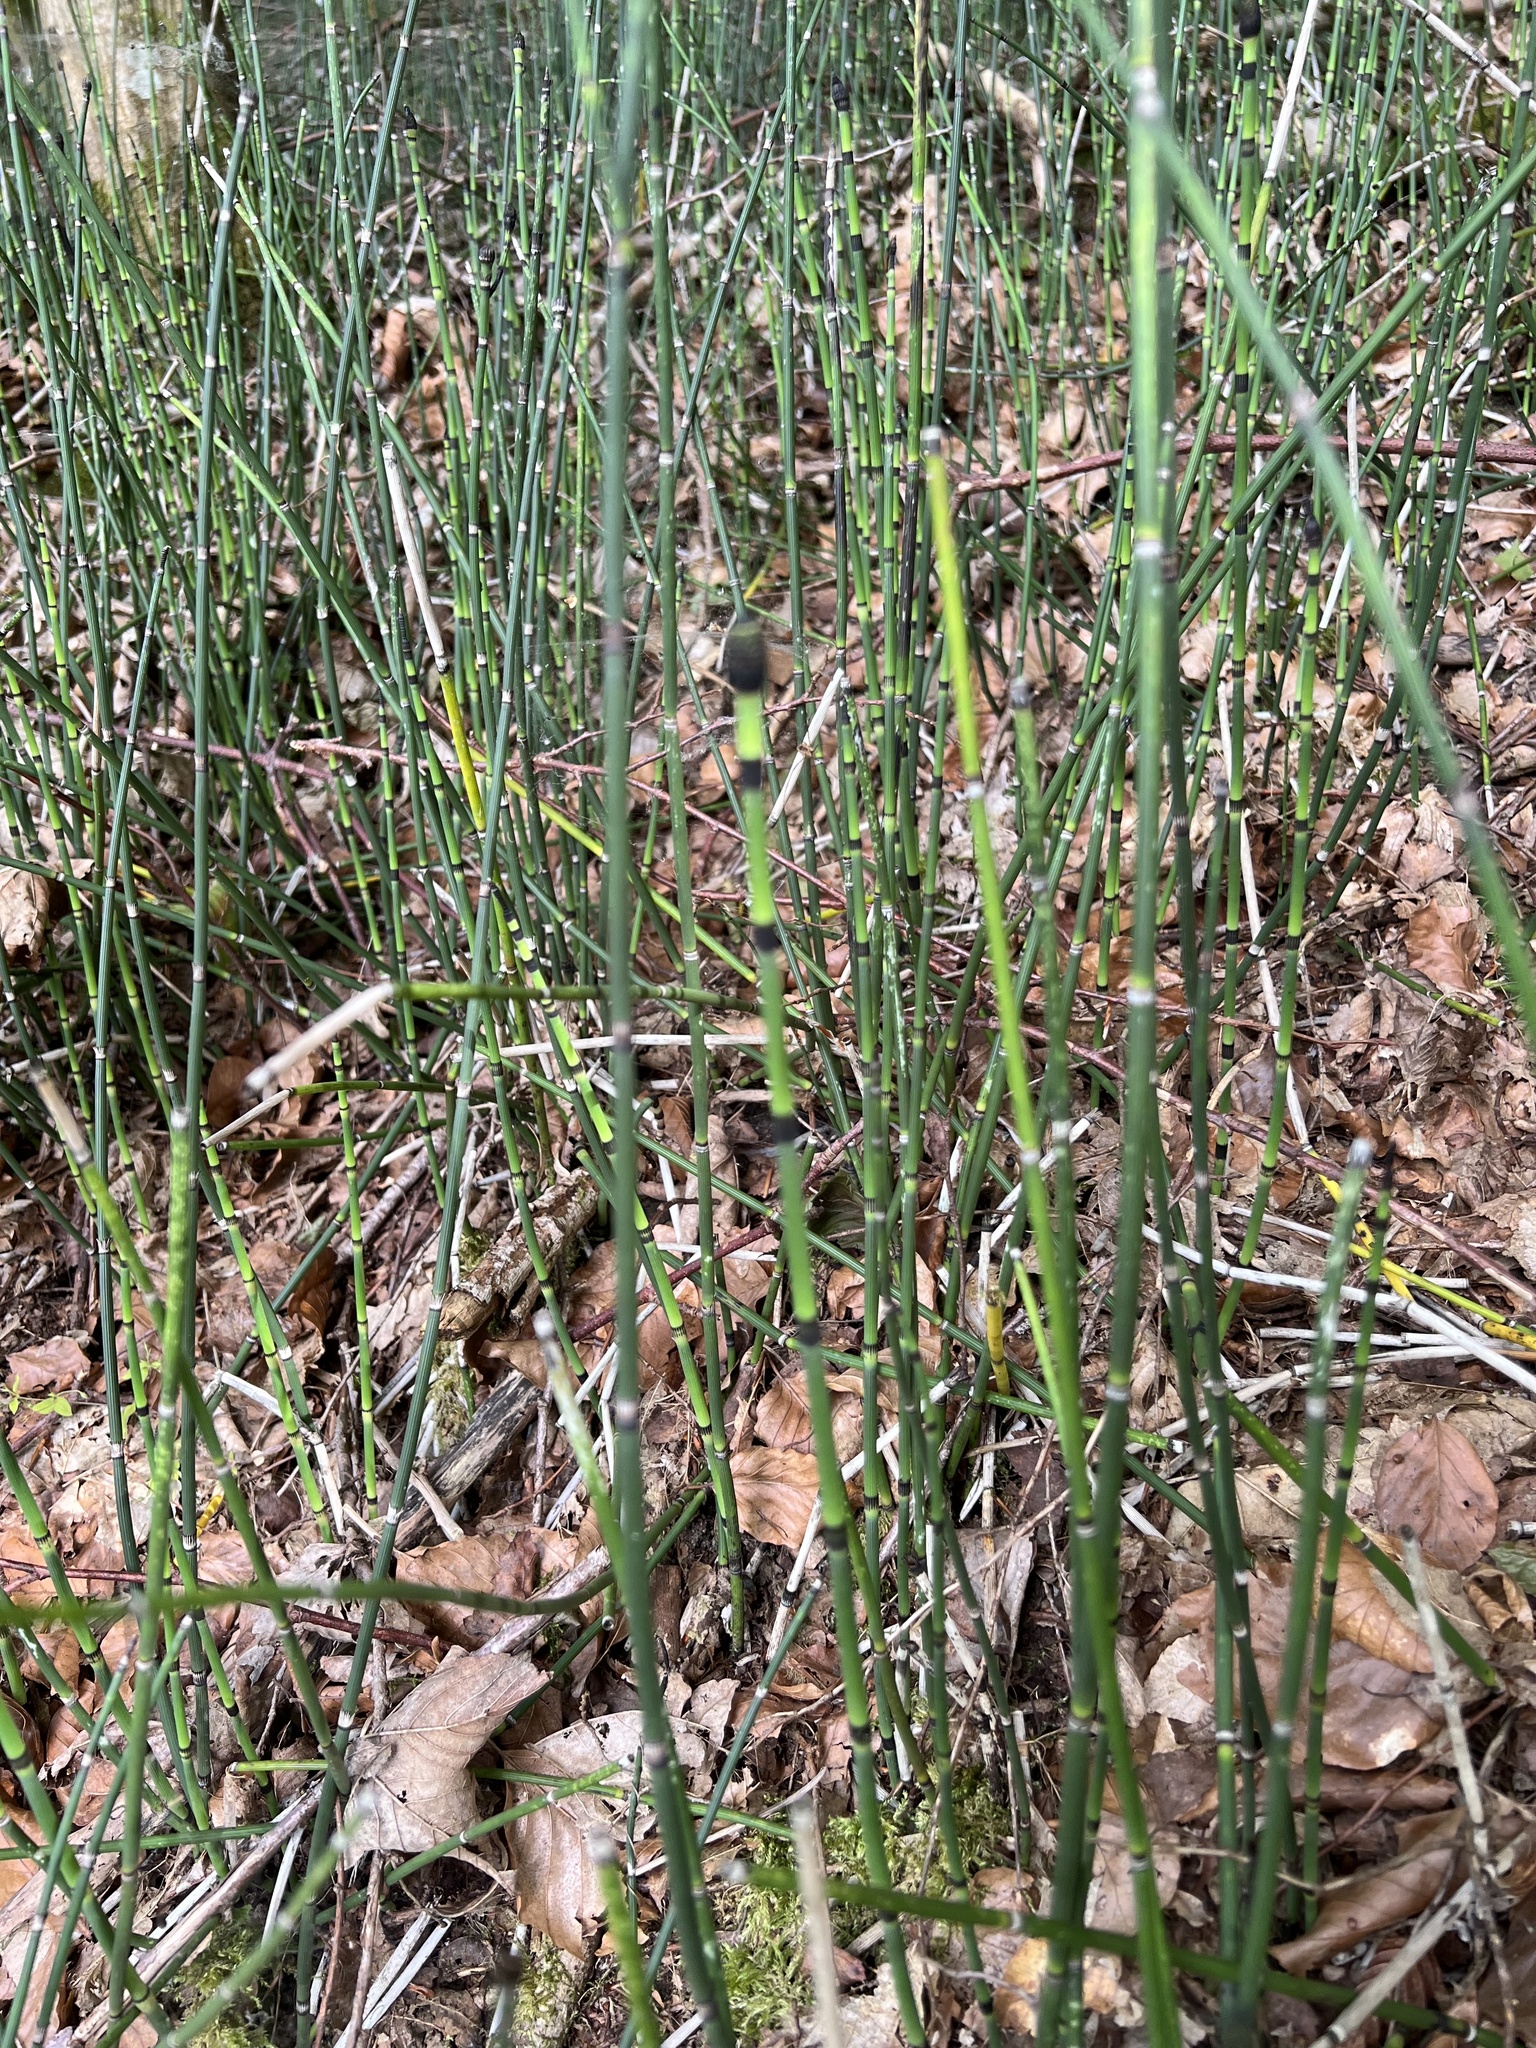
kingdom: Plantae
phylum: Tracheophyta
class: Polypodiopsida
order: Equisetales
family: Equisetaceae
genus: Equisetum
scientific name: Equisetum hyemale
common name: Rough horsetail
